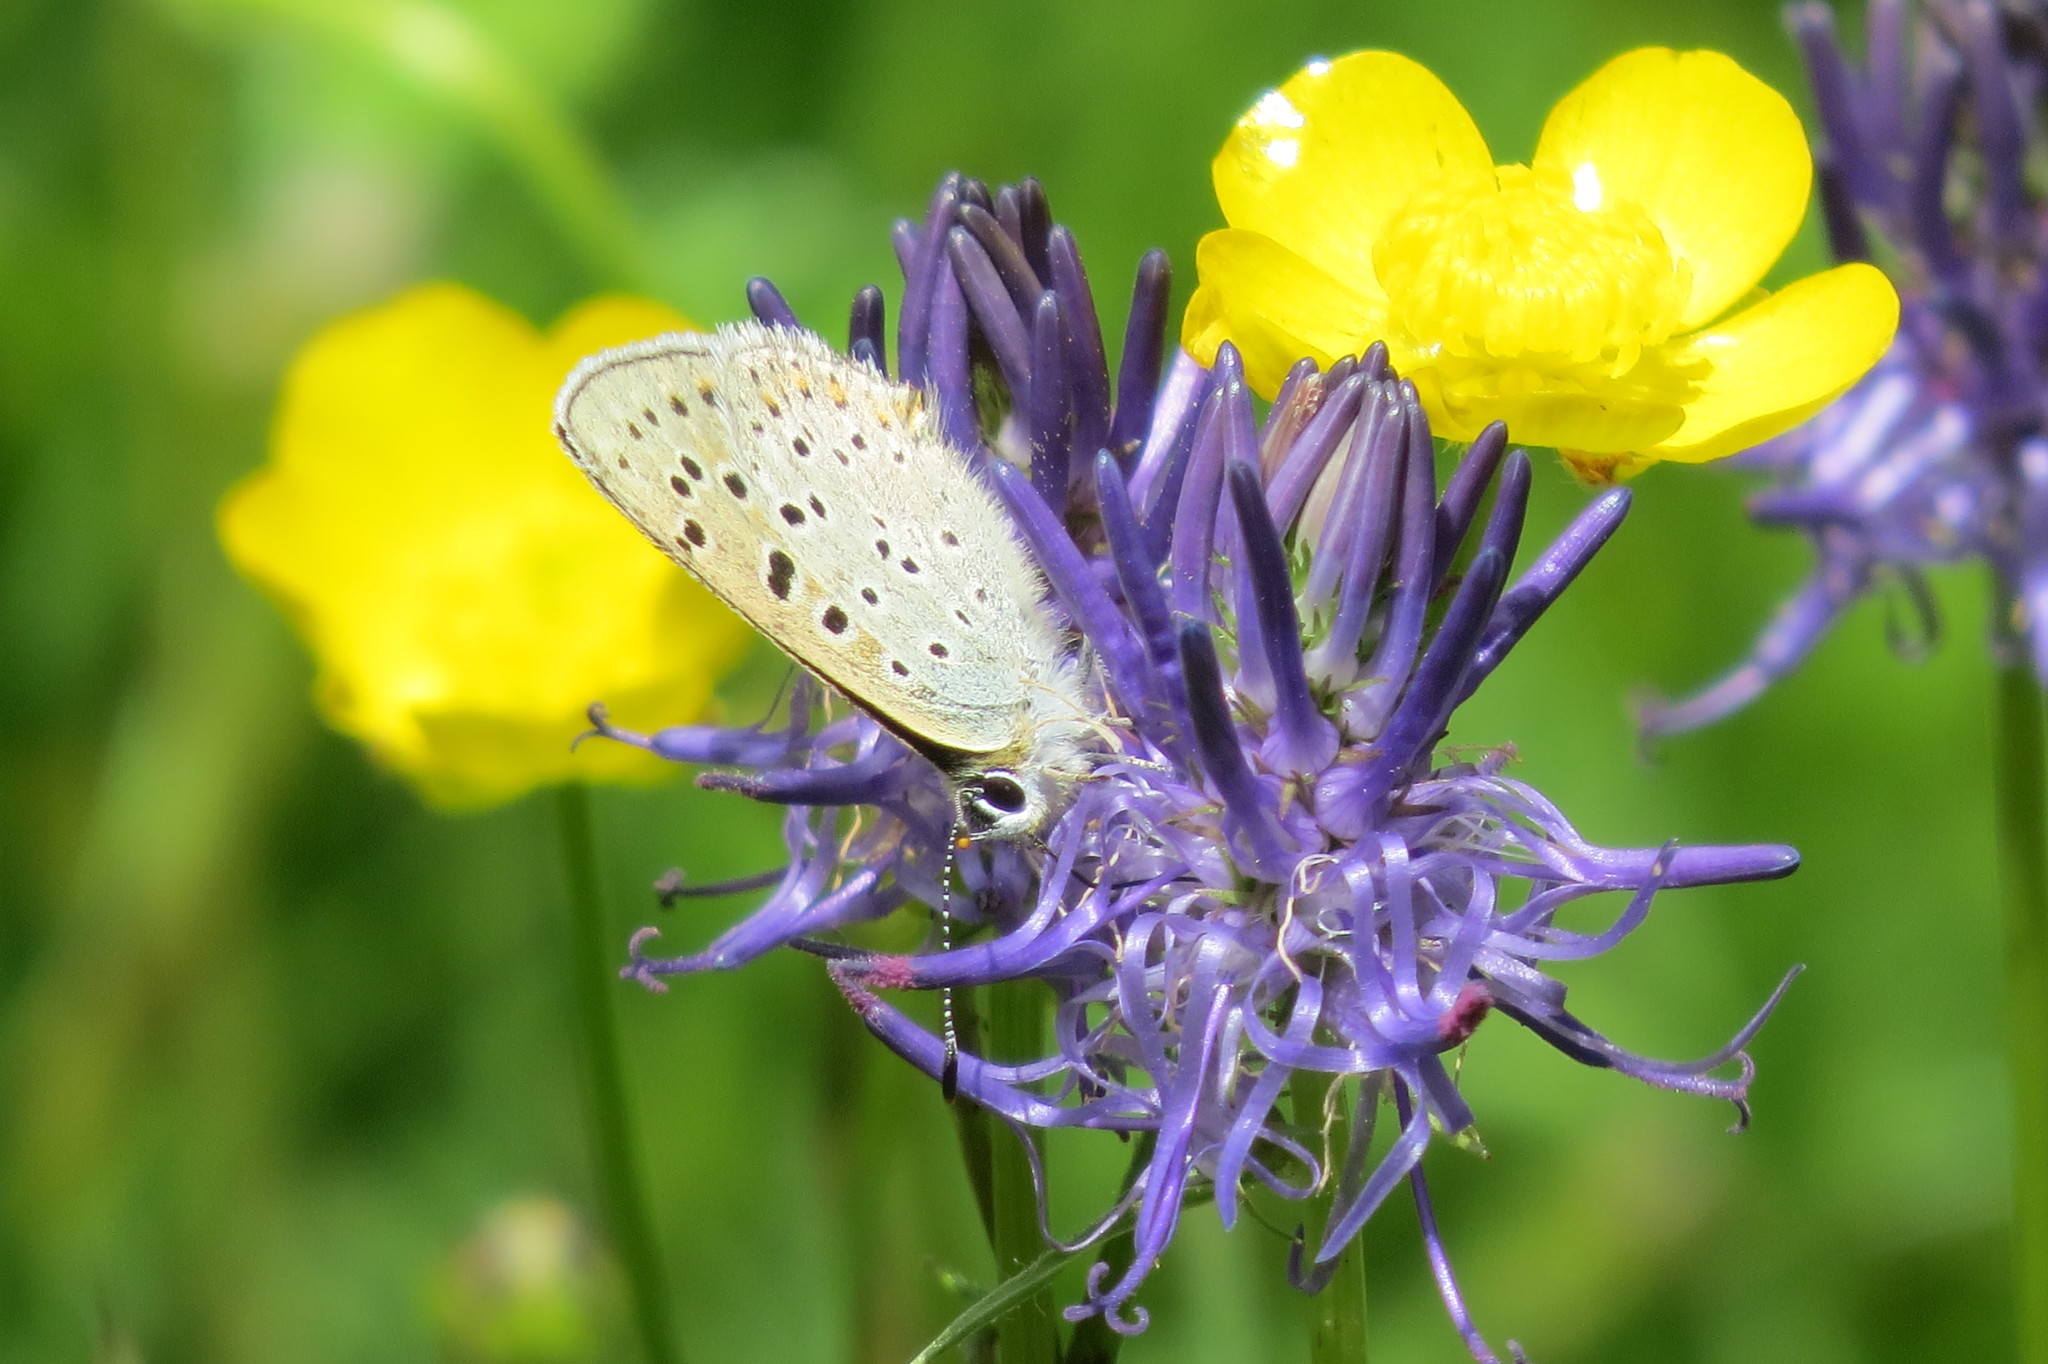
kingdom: Animalia
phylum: Arthropoda
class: Insecta
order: Lepidoptera
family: Lycaenidae
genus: Loweia
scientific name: Loweia tityrus
